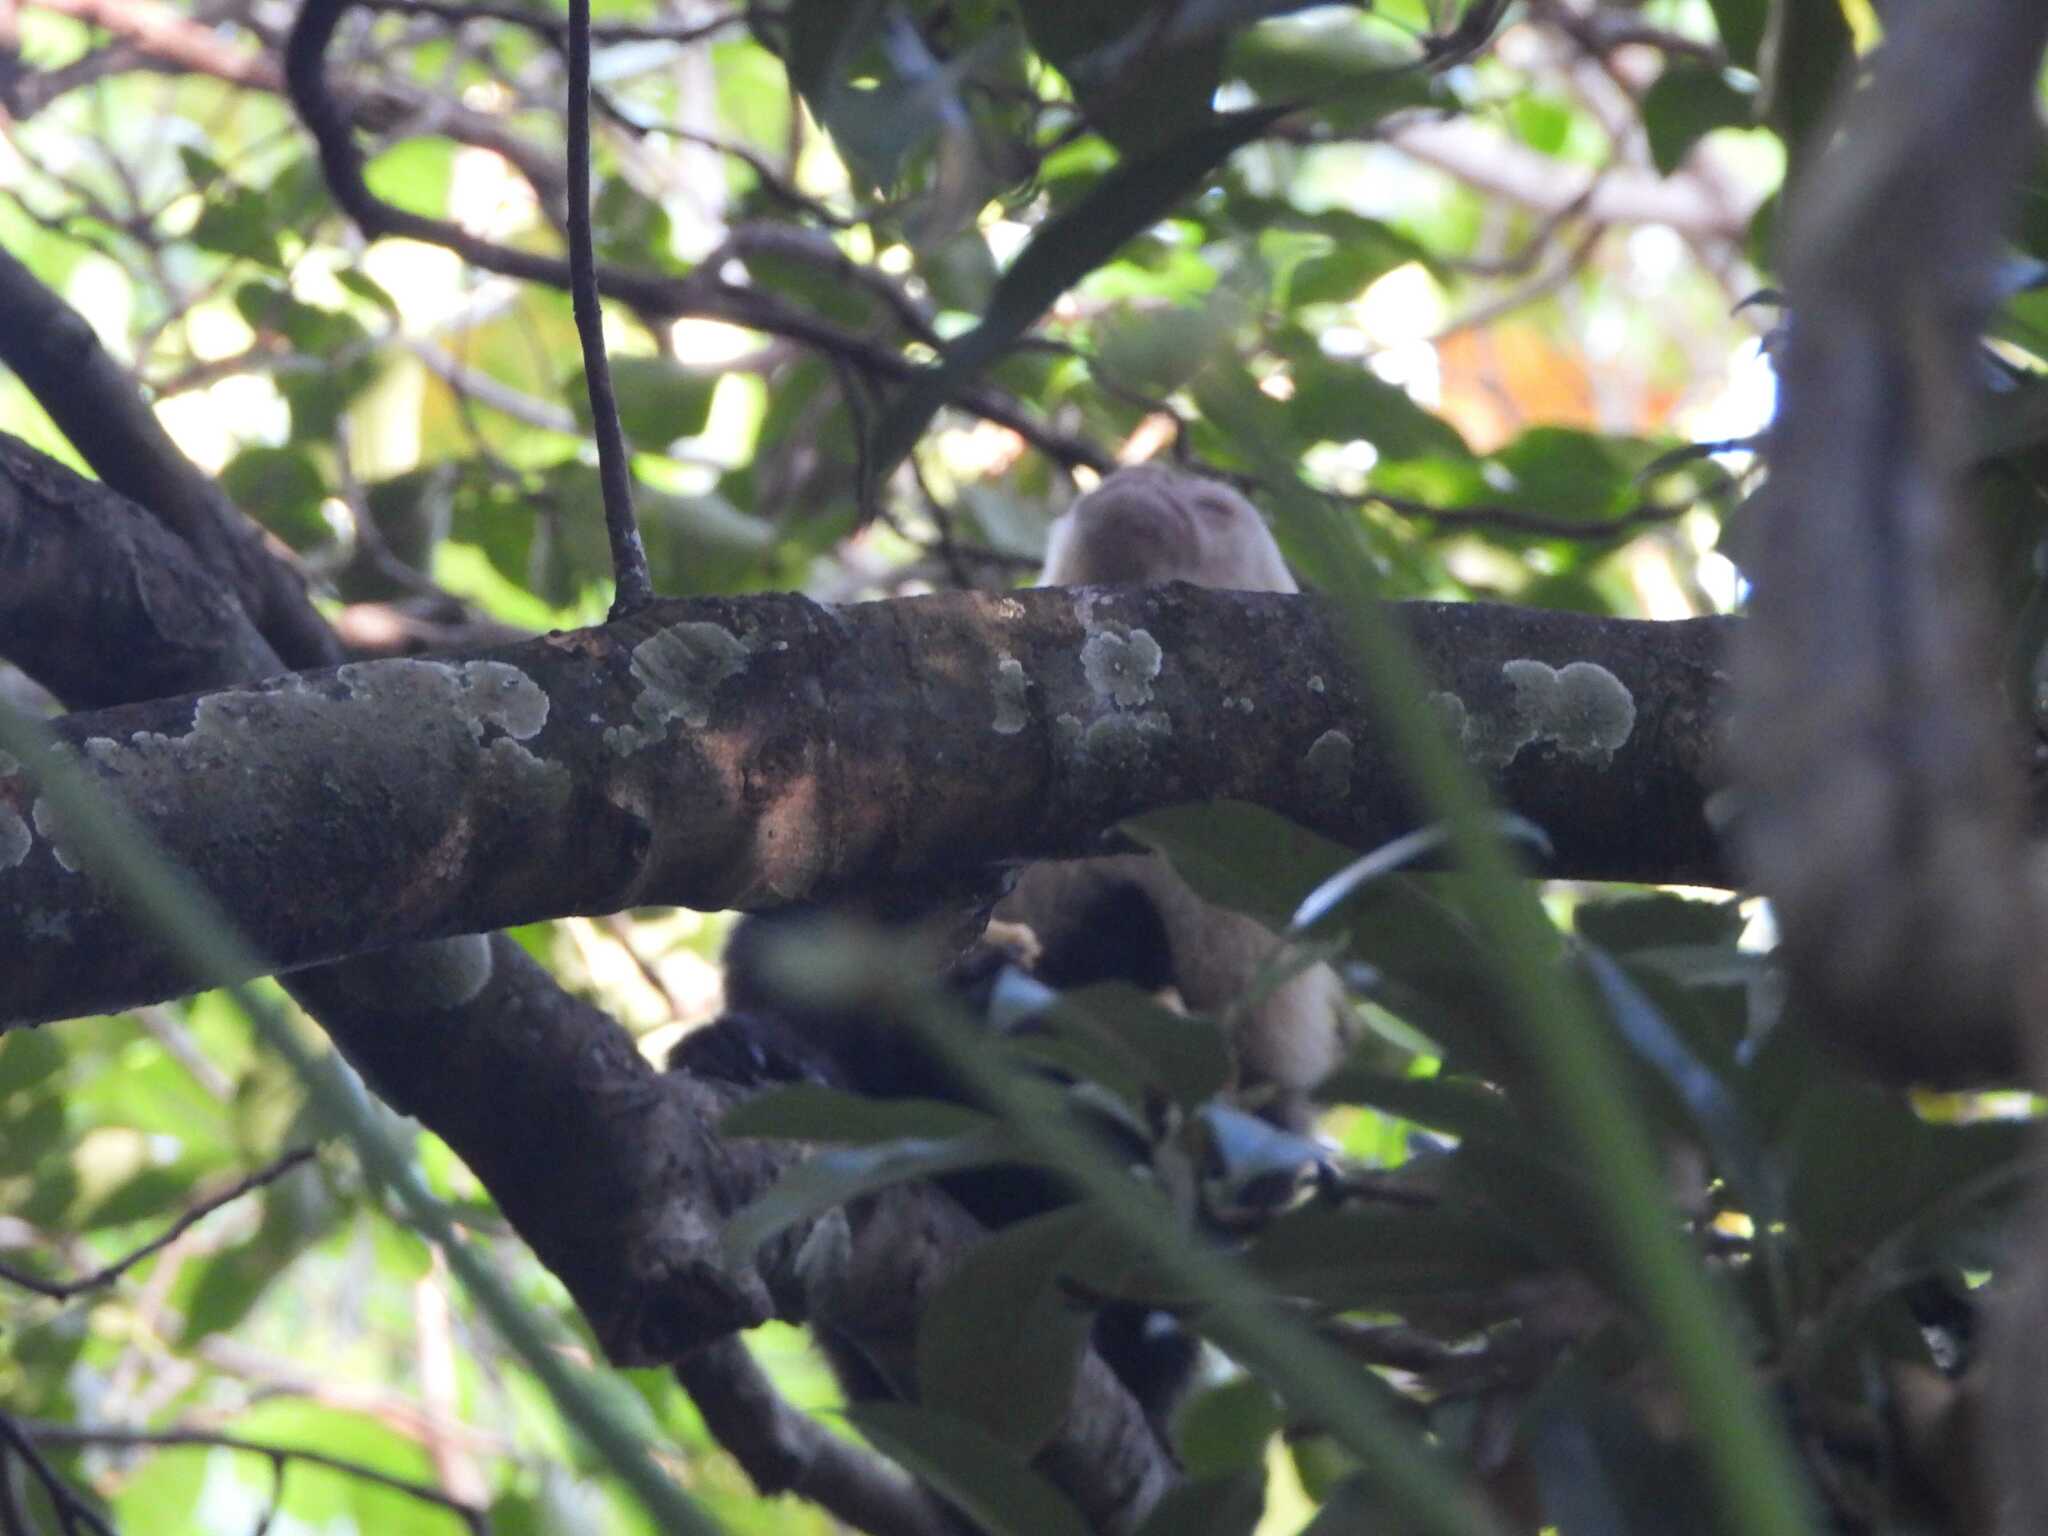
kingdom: Animalia
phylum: Chordata
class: Mammalia
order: Primates
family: Cebidae
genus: Cebus
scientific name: Cebus imitator
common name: Panamanian white-faced capuchin
